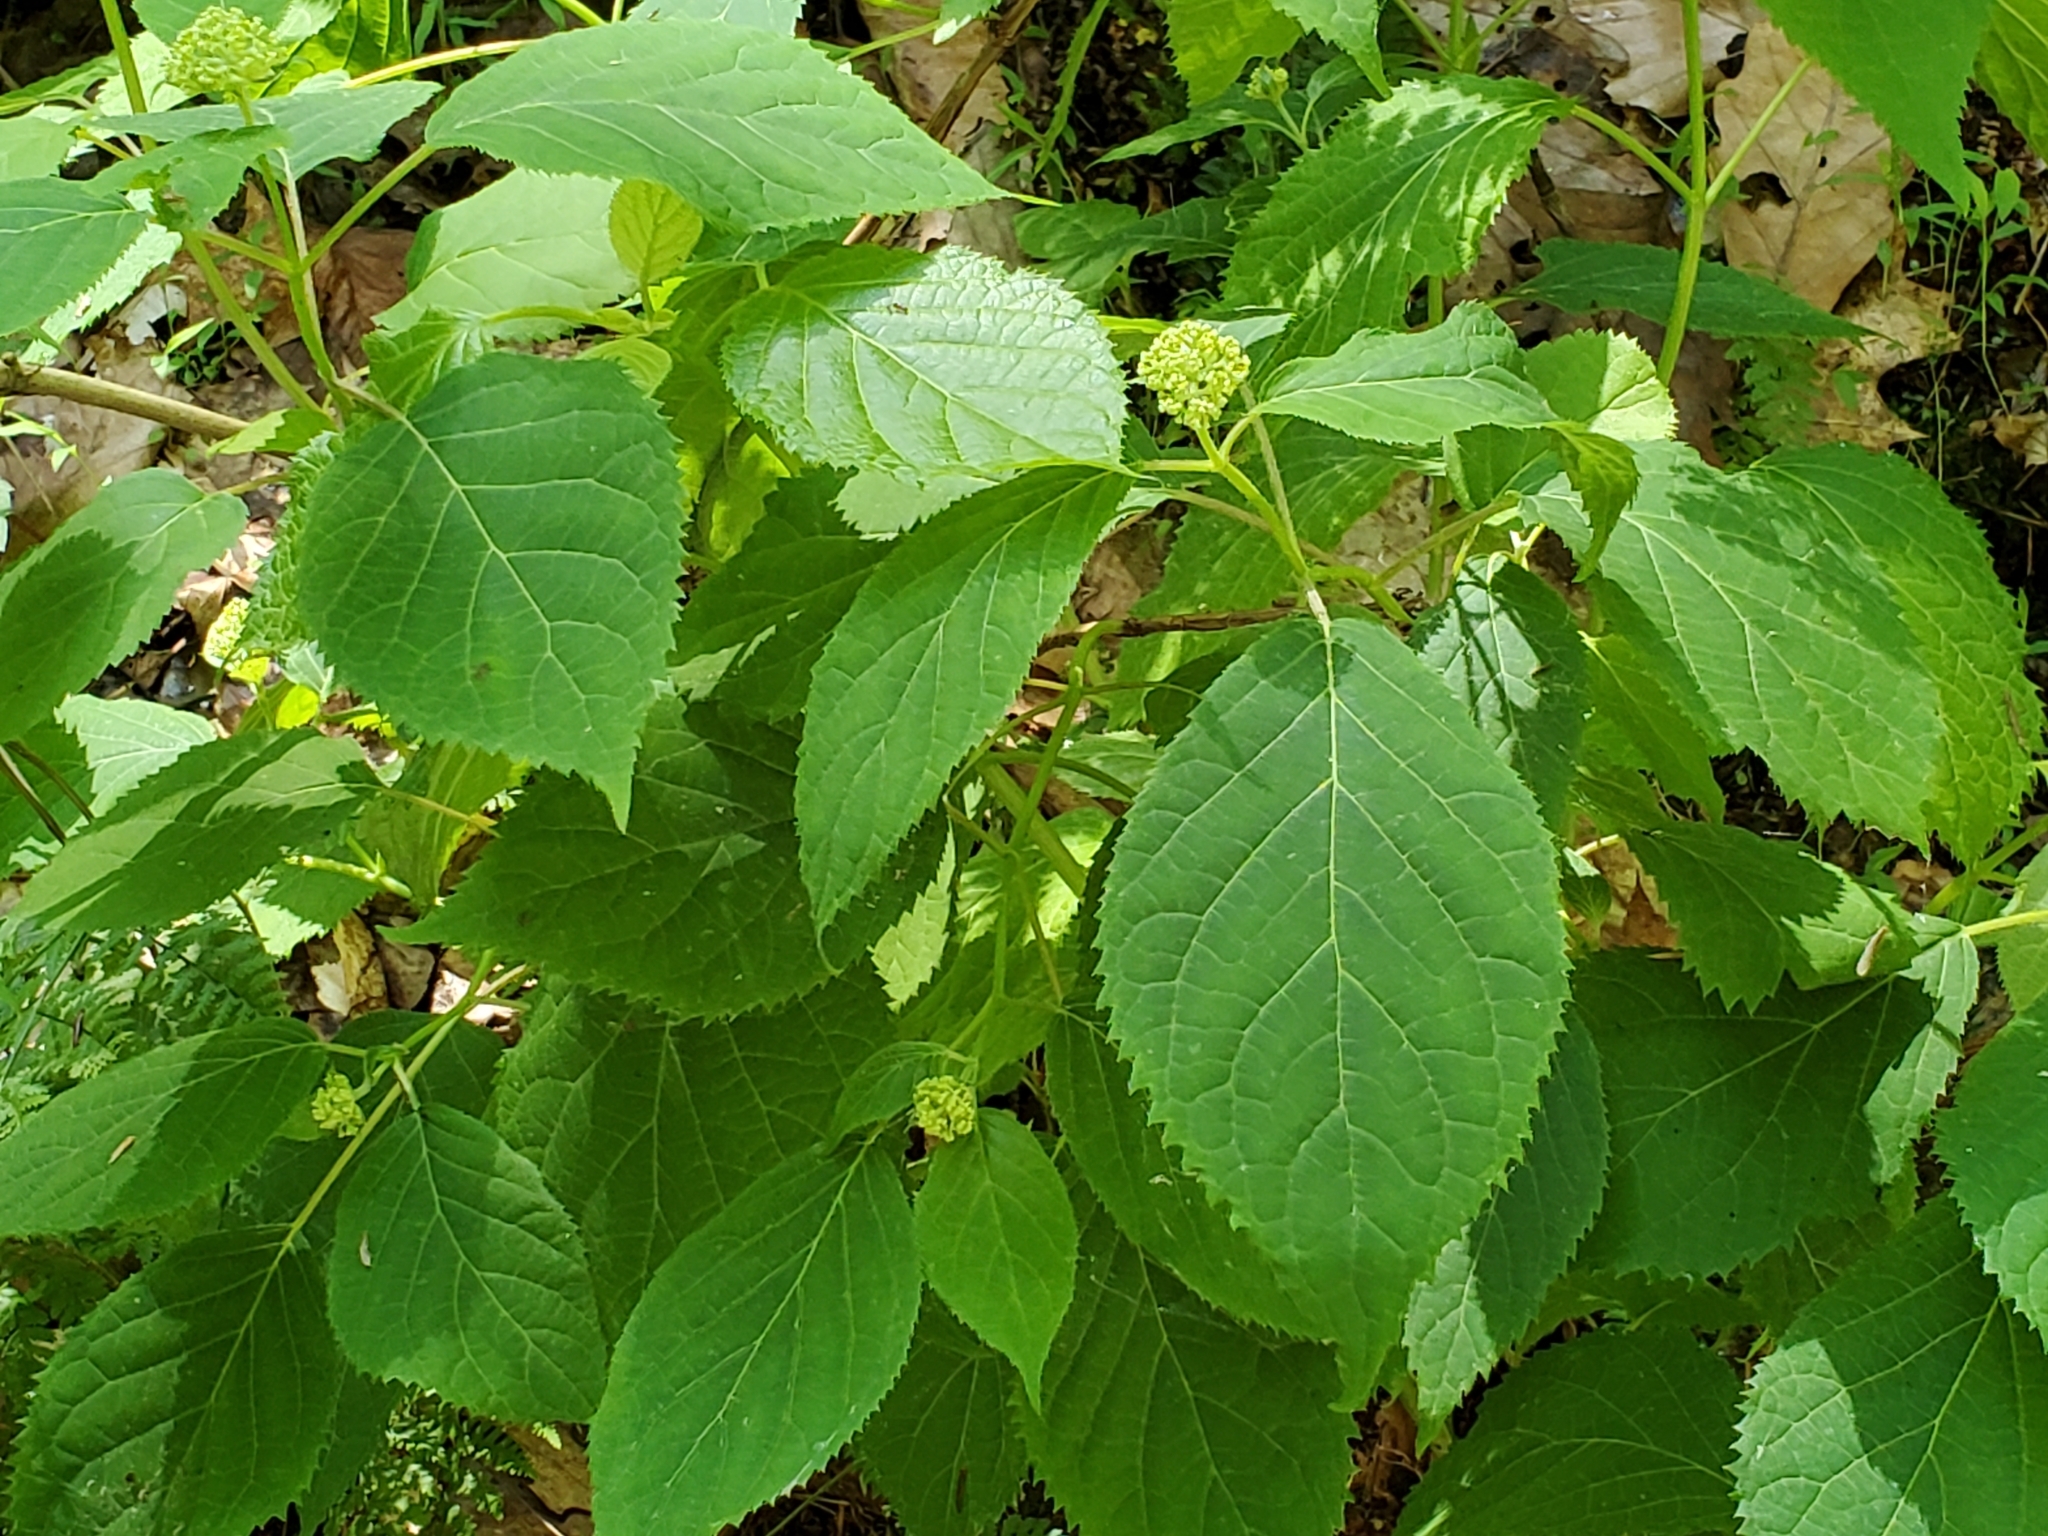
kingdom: Plantae
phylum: Tracheophyta
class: Magnoliopsida
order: Cornales
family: Hydrangeaceae
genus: Hydrangea
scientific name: Hydrangea arborescens
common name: Sevenbark
